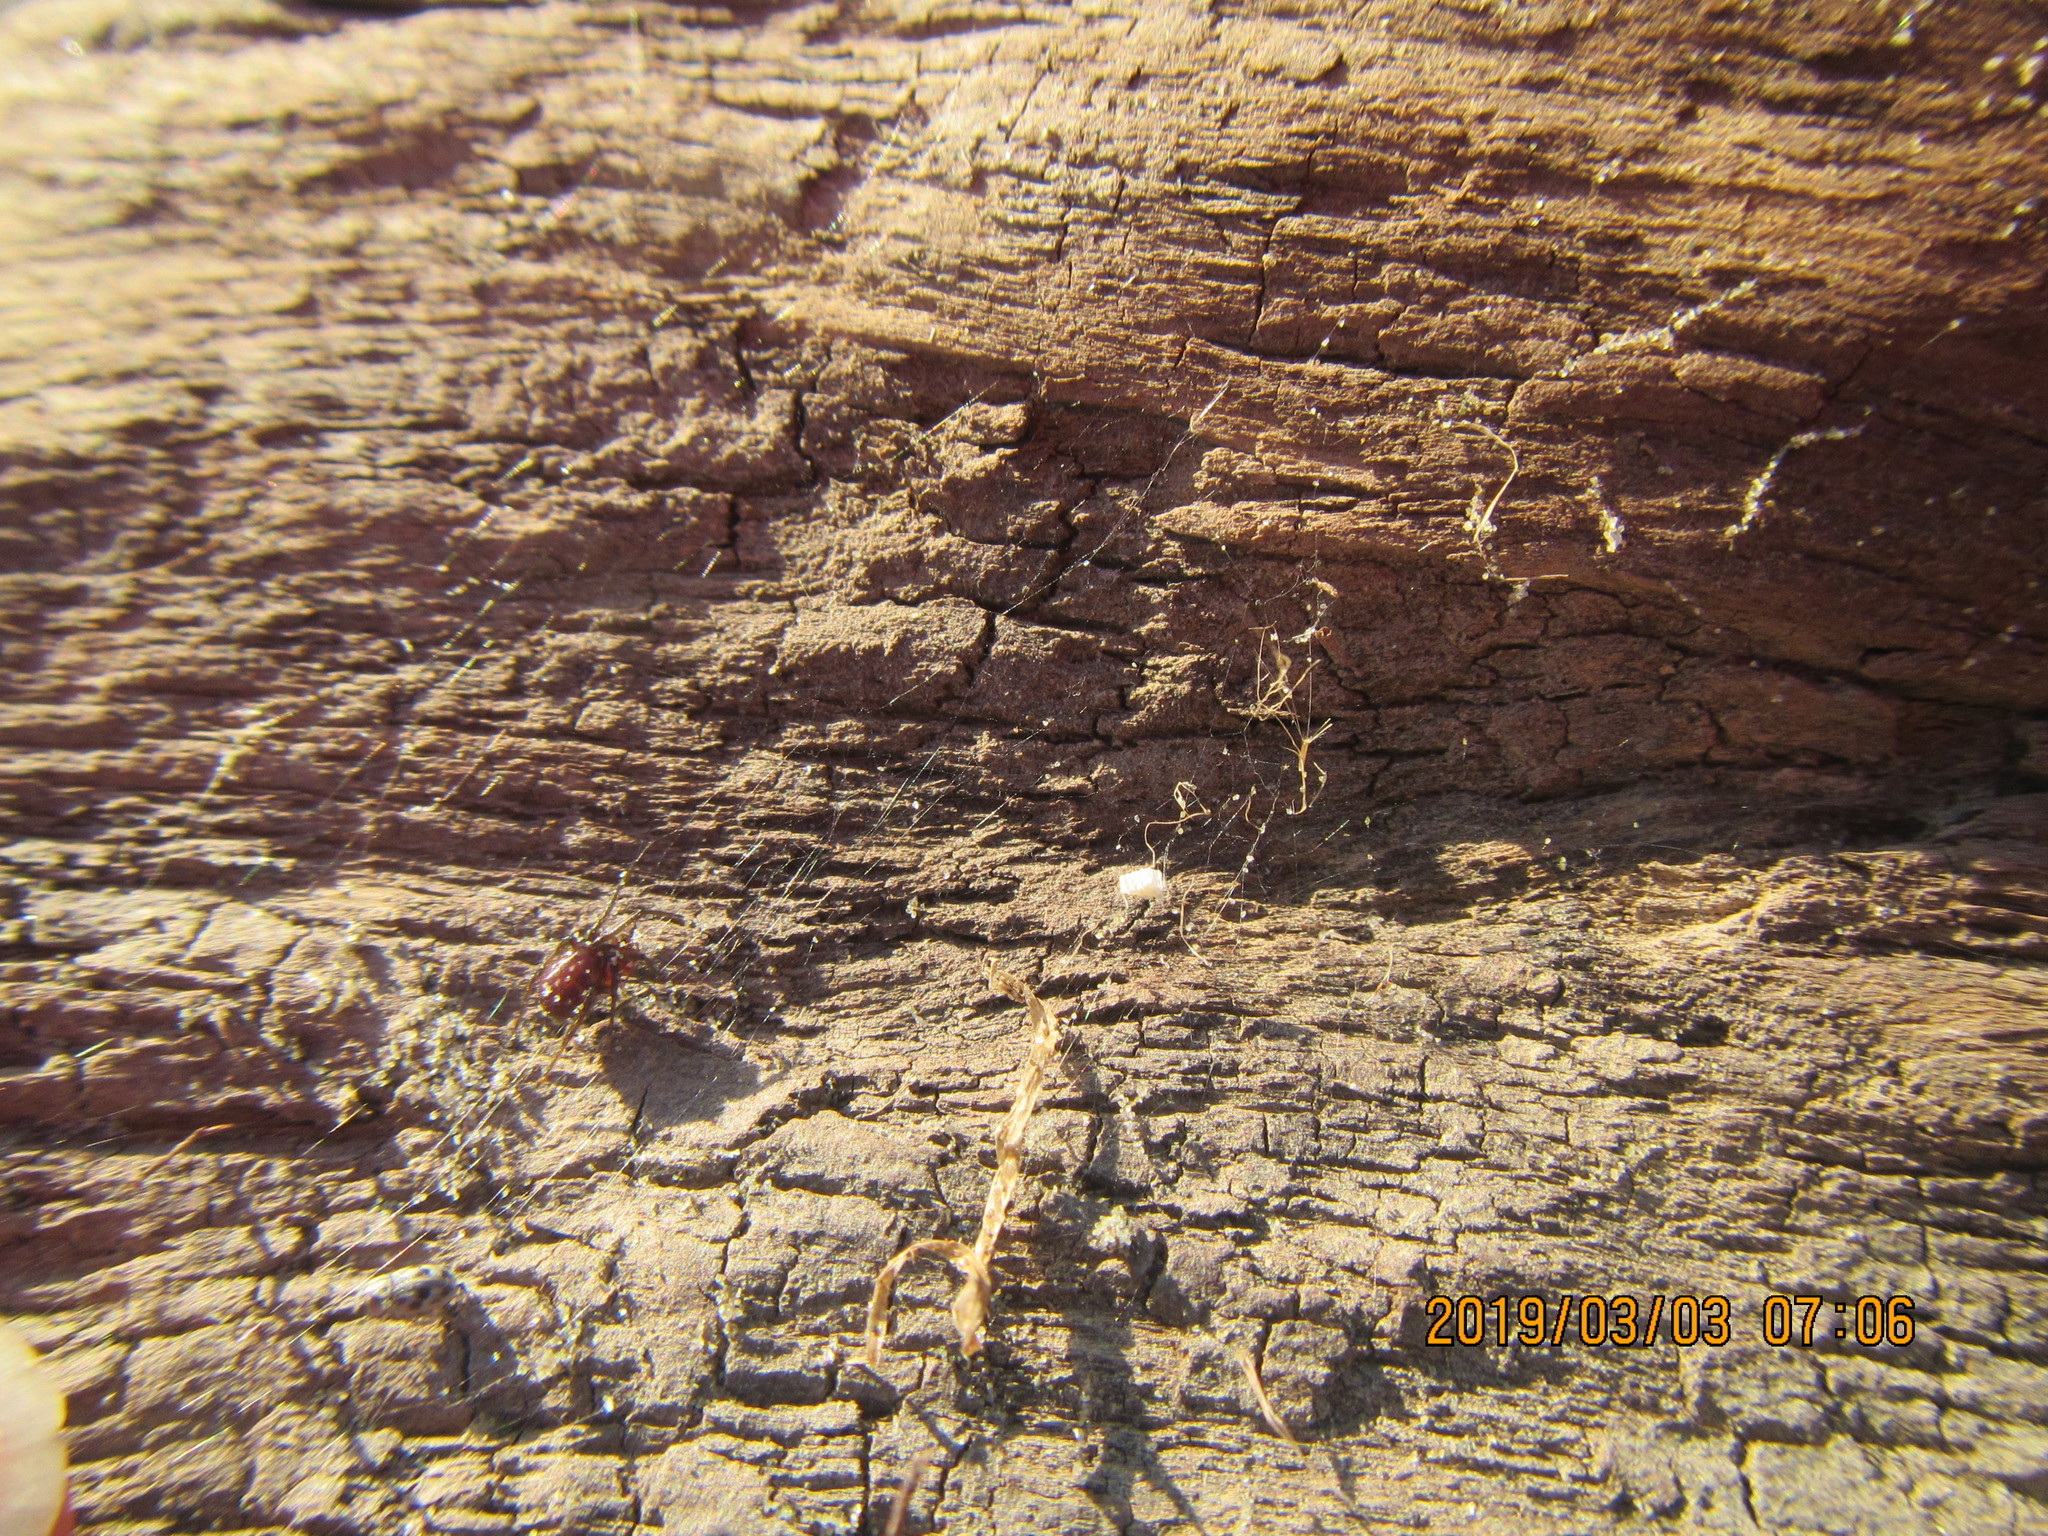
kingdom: Animalia
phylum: Arthropoda
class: Arachnida
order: Araneae
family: Theridiidae
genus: Steatoda
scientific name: Steatoda capensis
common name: Cobweb weaver
